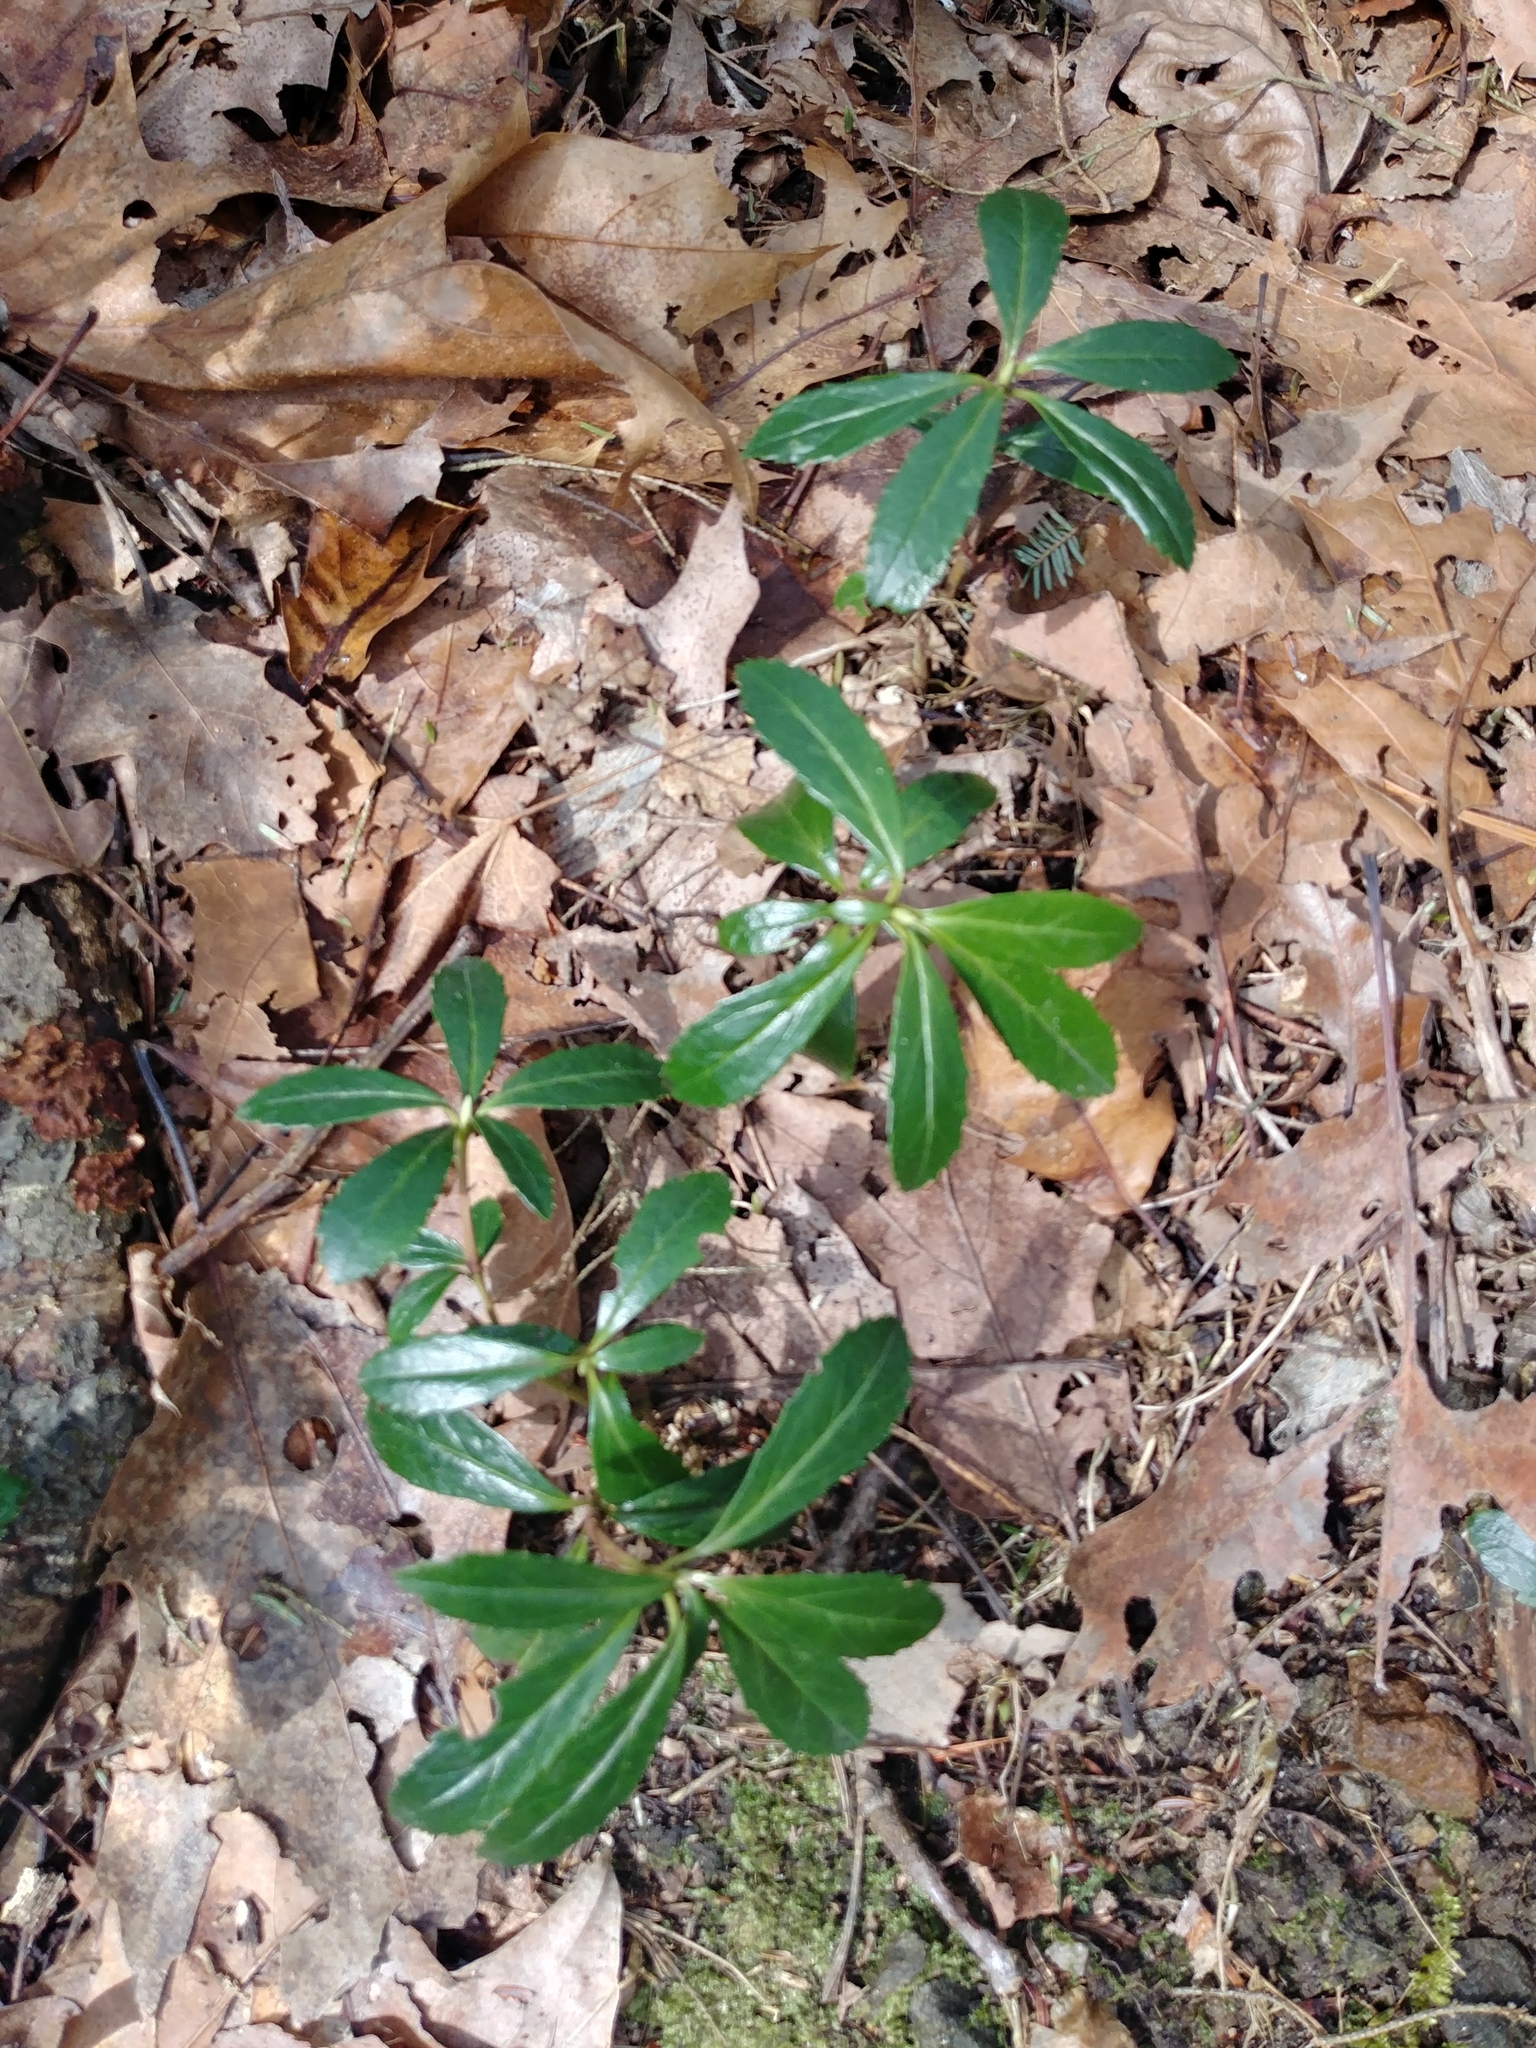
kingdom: Plantae
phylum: Tracheophyta
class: Magnoliopsida
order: Ericales
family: Ericaceae
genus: Chimaphila
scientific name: Chimaphila umbellata
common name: Pipsissewa
